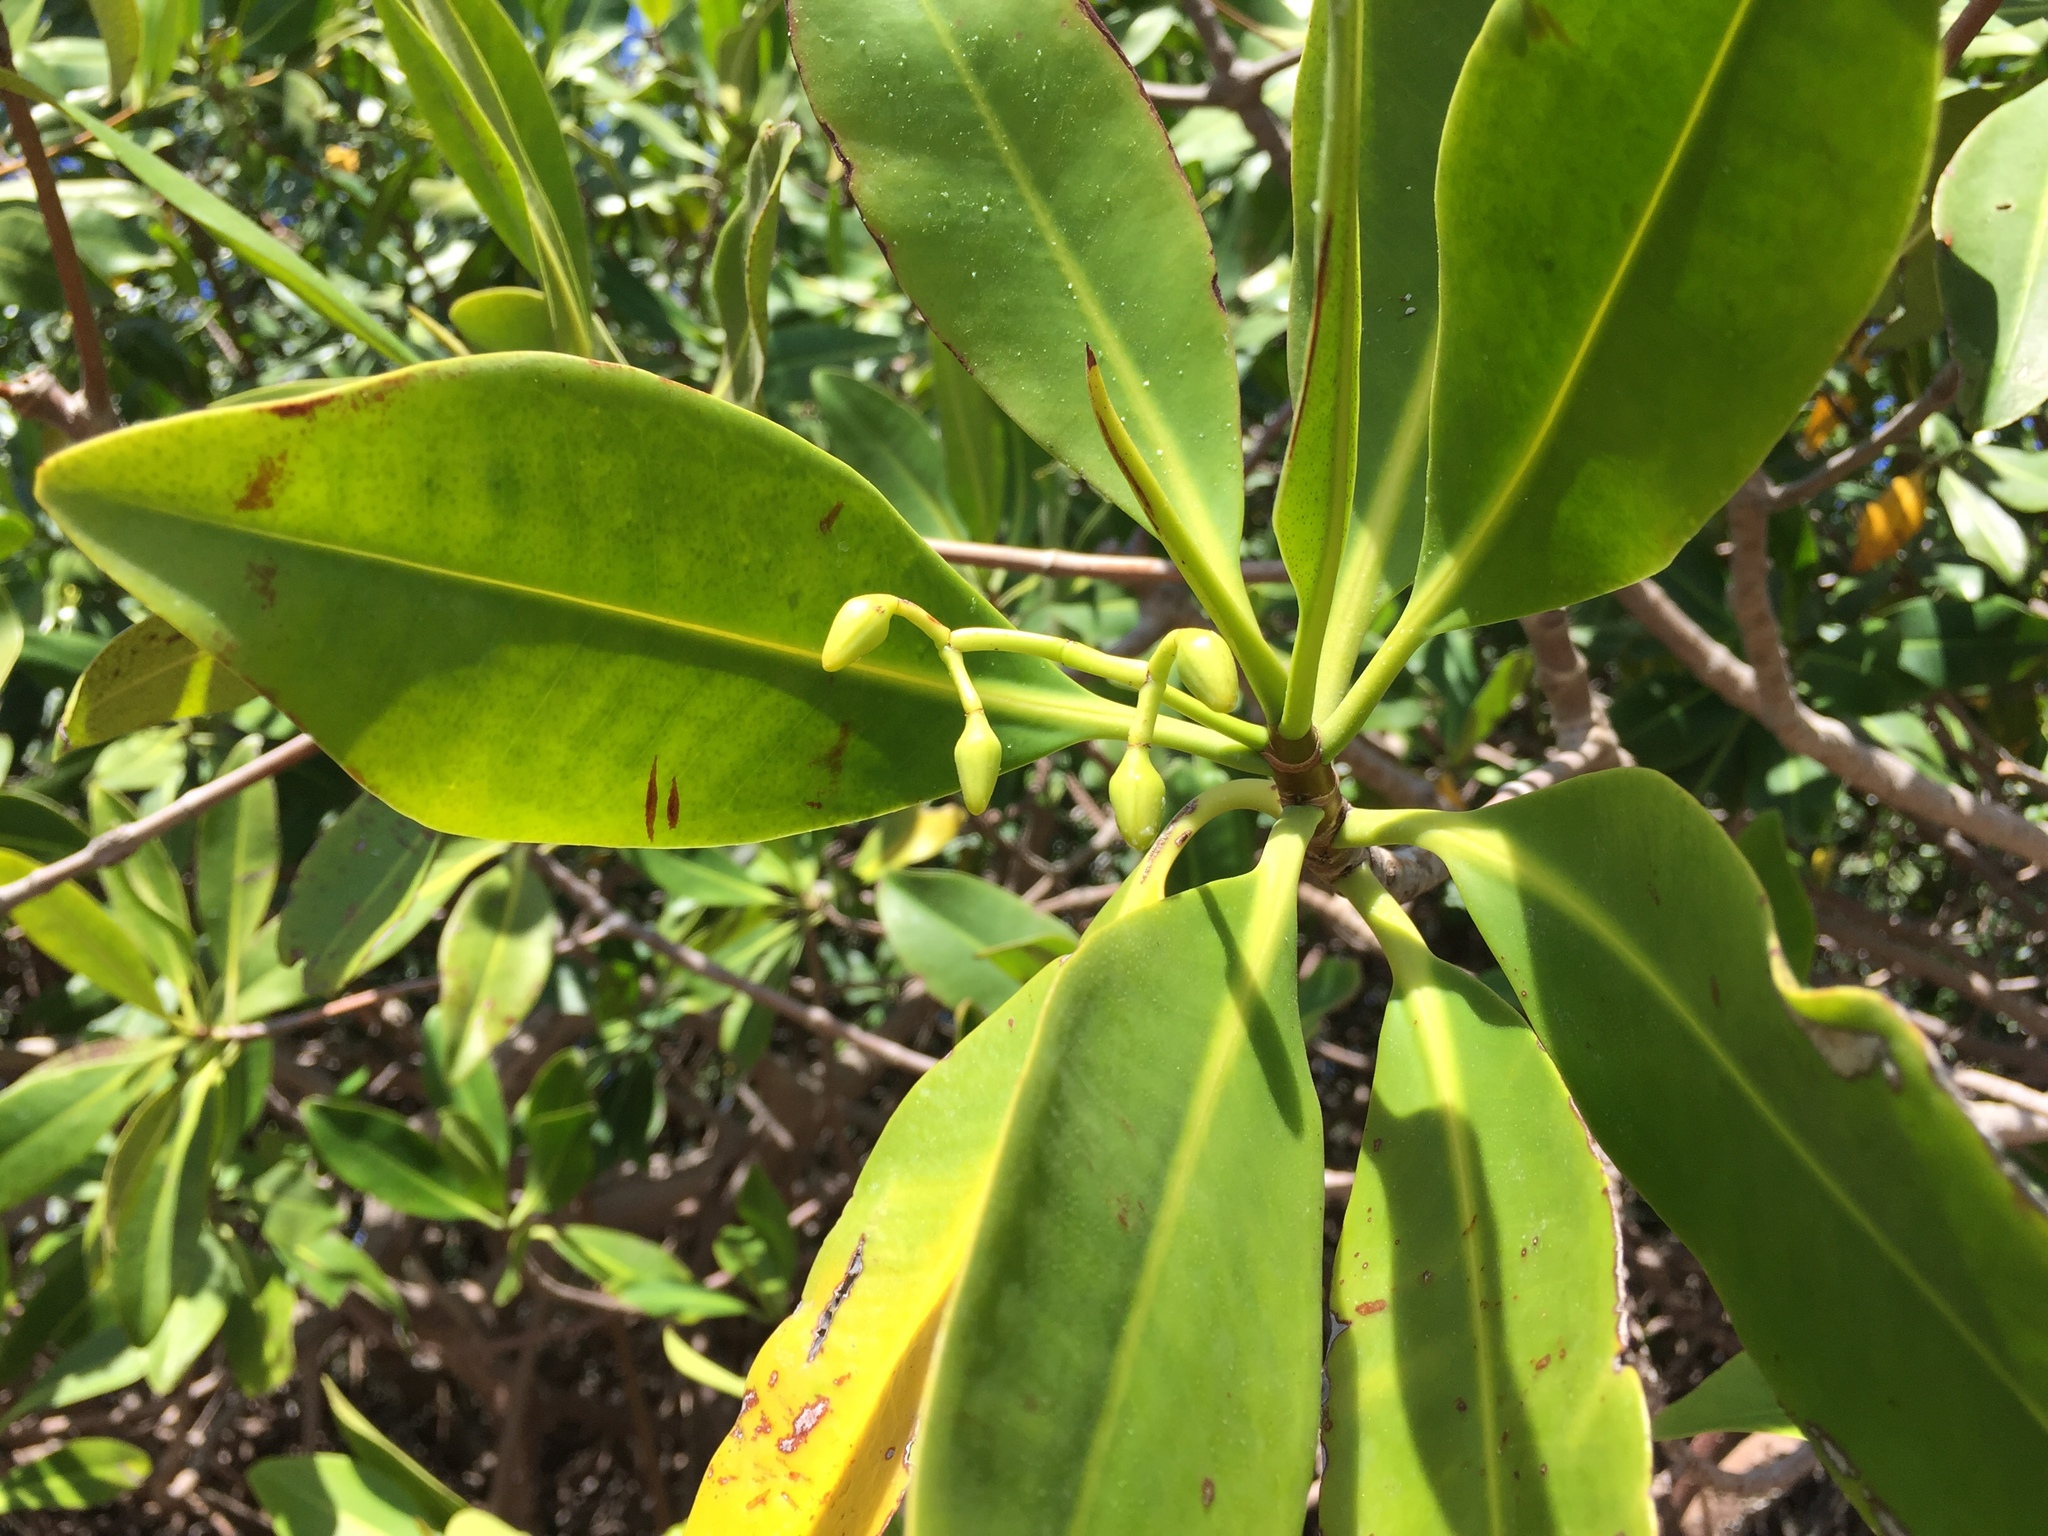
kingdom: Plantae
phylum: Tracheophyta
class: Magnoliopsida
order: Malpighiales
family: Rhizophoraceae
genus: Rhizophora
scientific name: Rhizophora mangle
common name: Red mangrove
